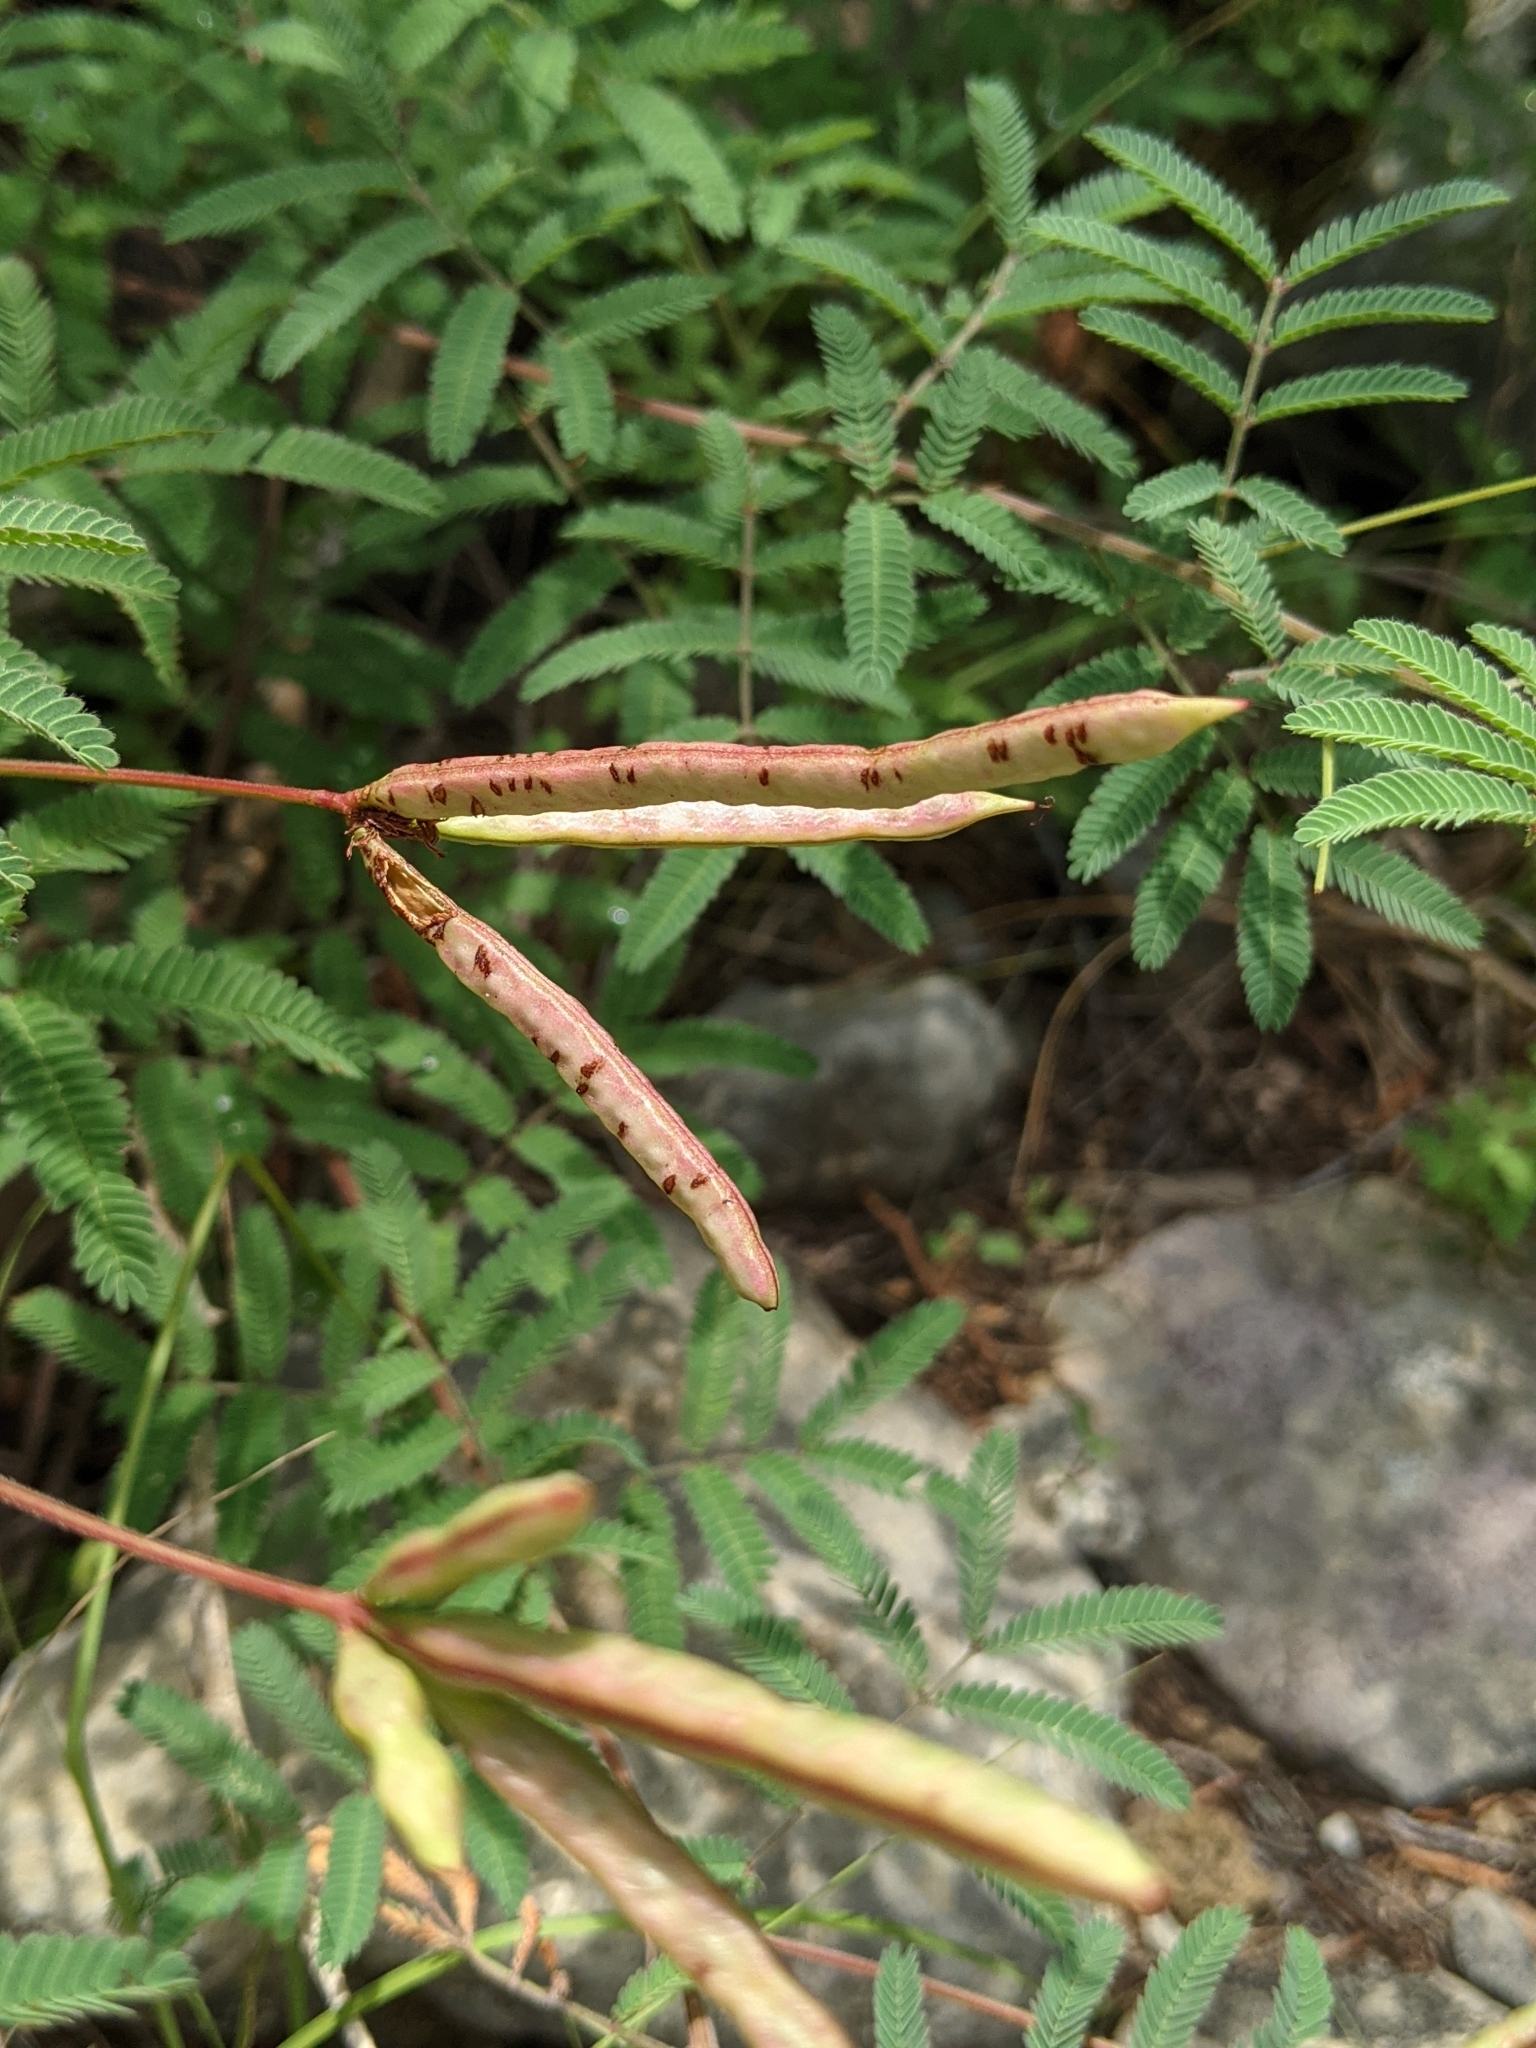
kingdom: Plantae
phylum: Tracheophyta
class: Magnoliopsida
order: Fabales
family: Fabaceae
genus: Desmanthus
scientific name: Desmanthus velutinus
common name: Velvet bundle-flower
